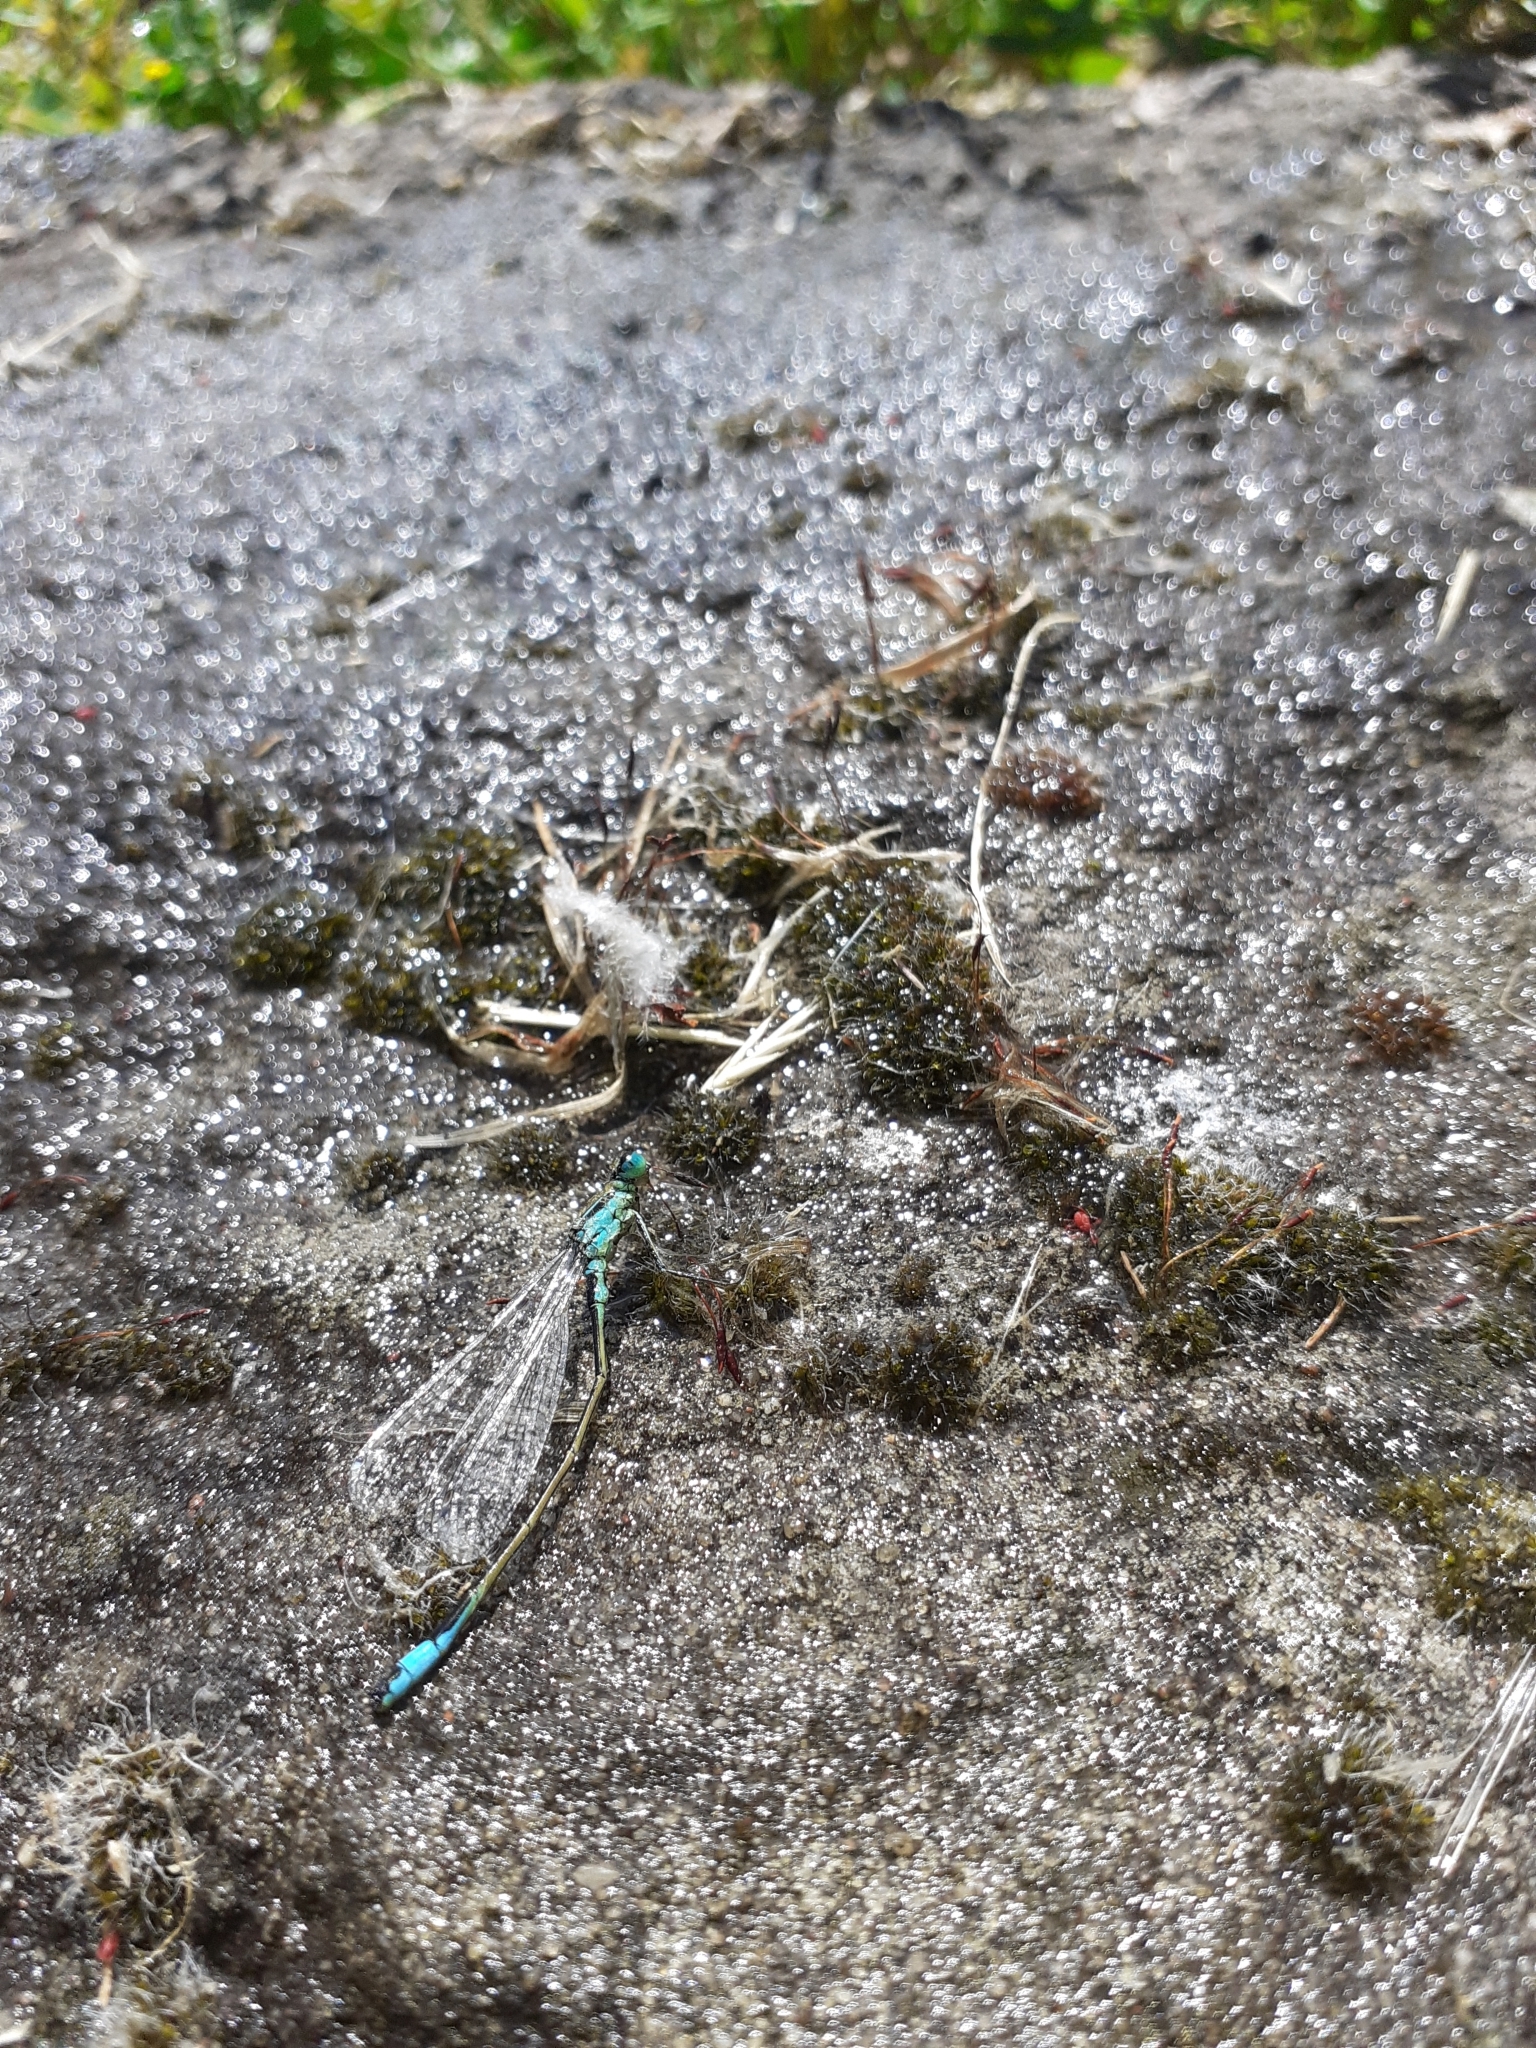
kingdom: Animalia
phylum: Arthropoda
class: Insecta
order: Odonata
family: Coenagrionidae
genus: Ischnura
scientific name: Ischnura elegans
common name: Blue-tailed damselfly
